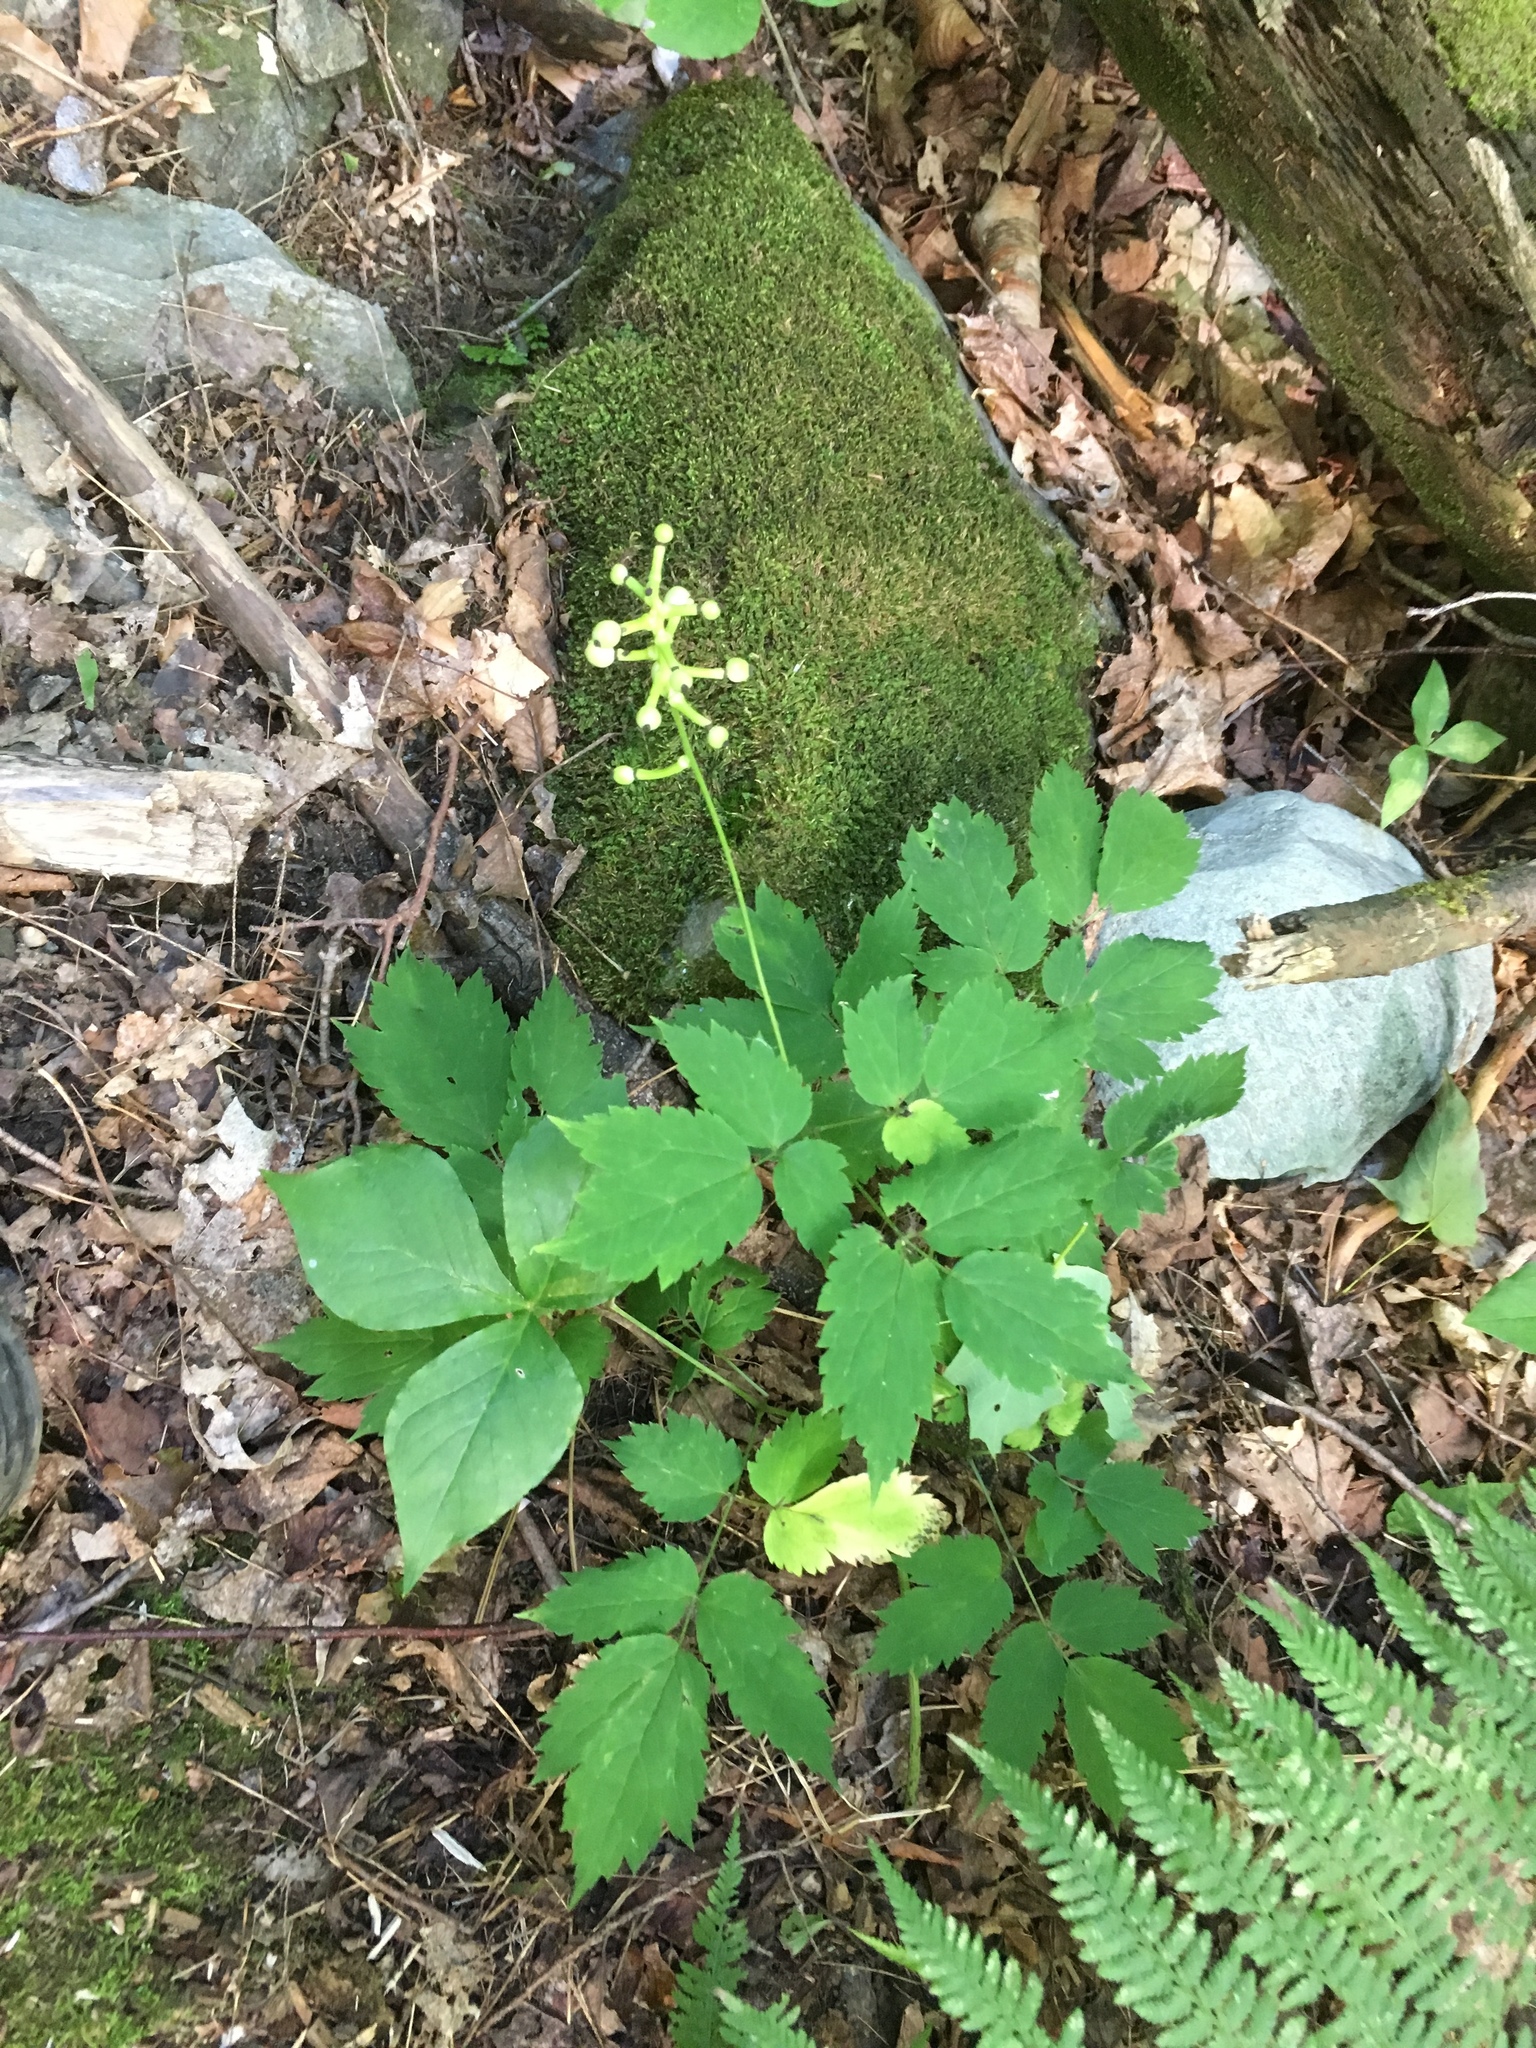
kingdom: Plantae
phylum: Tracheophyta
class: Magnoliopsida
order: Ranunculales
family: Ranunculaceae
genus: Actaea
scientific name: Actaea pachypoda
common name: Doll's-eyes
